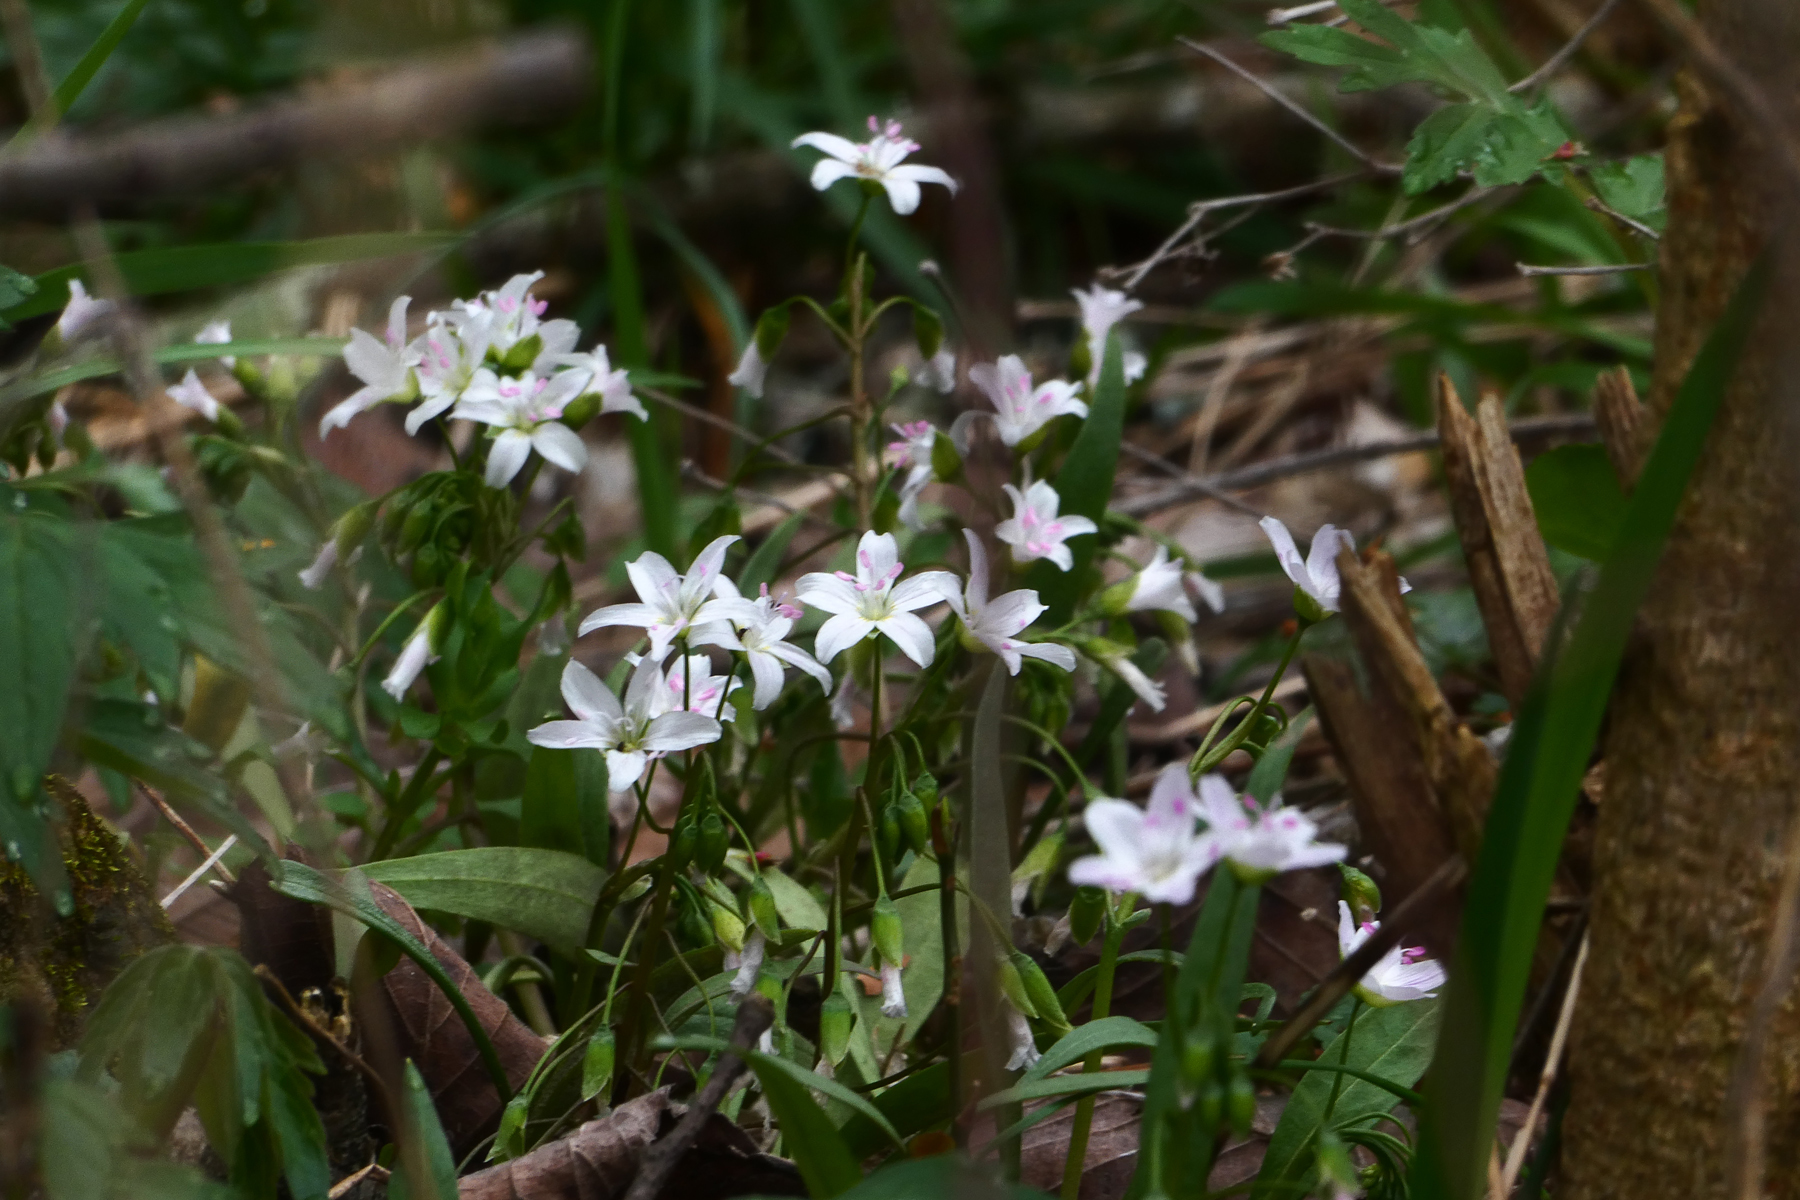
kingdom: Plantae
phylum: Tracheophyta
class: Magnoliopsida
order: Caryophyllales
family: Montiaceae
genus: Claytonia
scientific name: Claytonia virginica
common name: Virginia springbeauty
